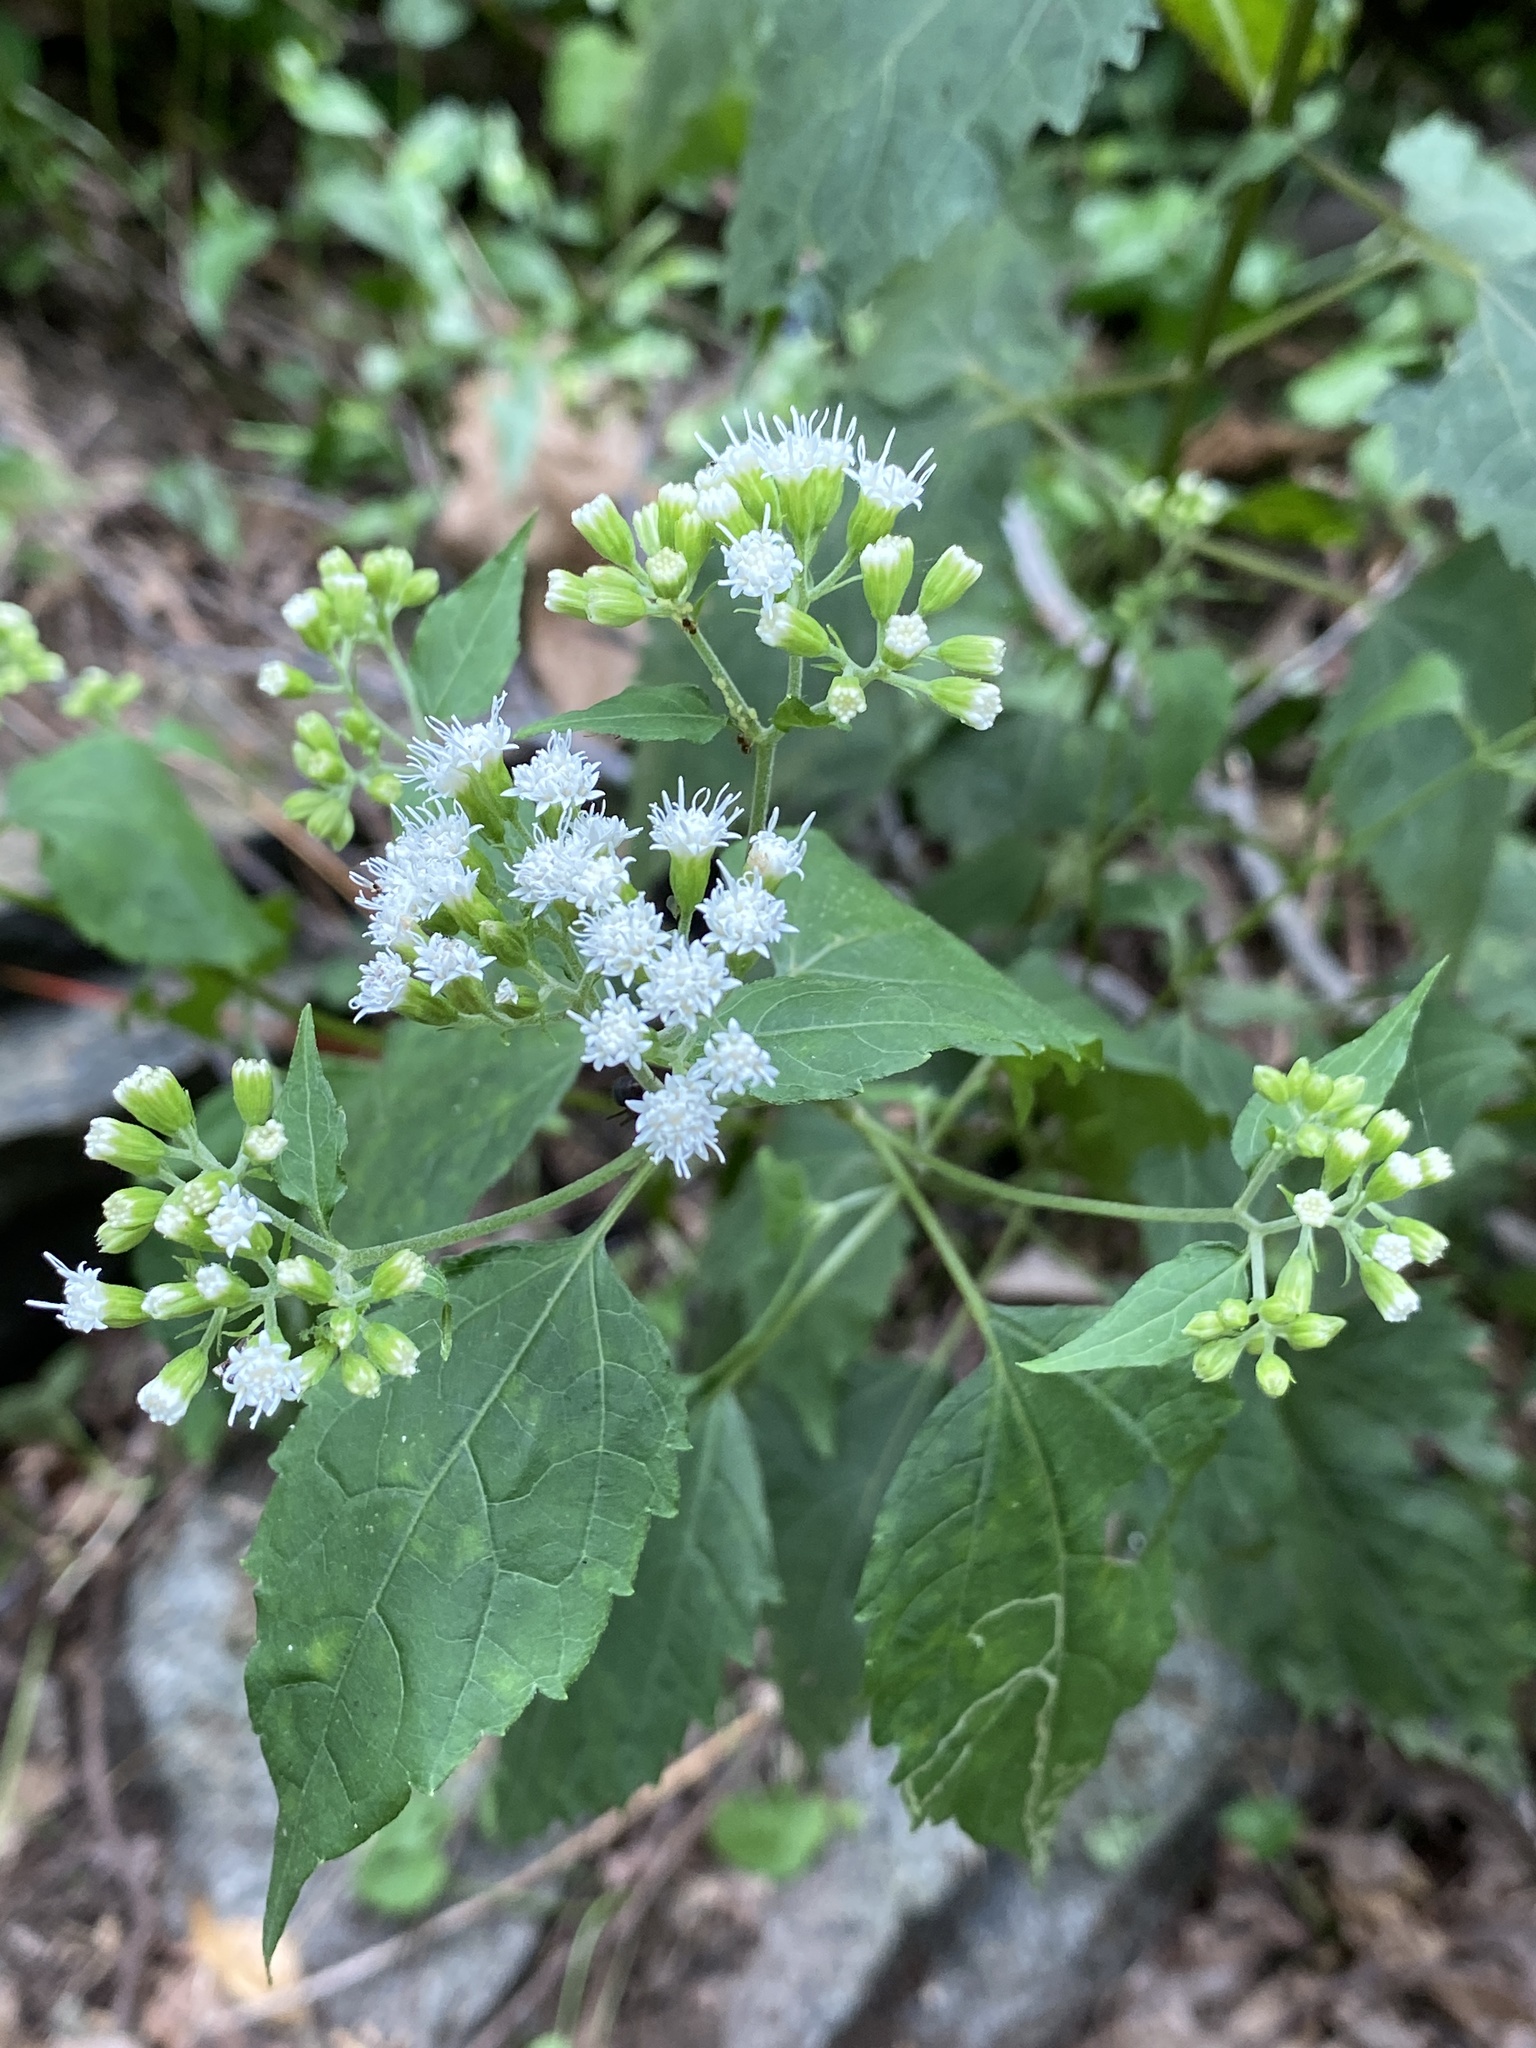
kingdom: Plantae
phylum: Tracheophyta
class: Magnoliopsida
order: Asterales
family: Asteraceae
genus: Ageratina
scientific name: Ageratina altissima
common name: White snakeroot
